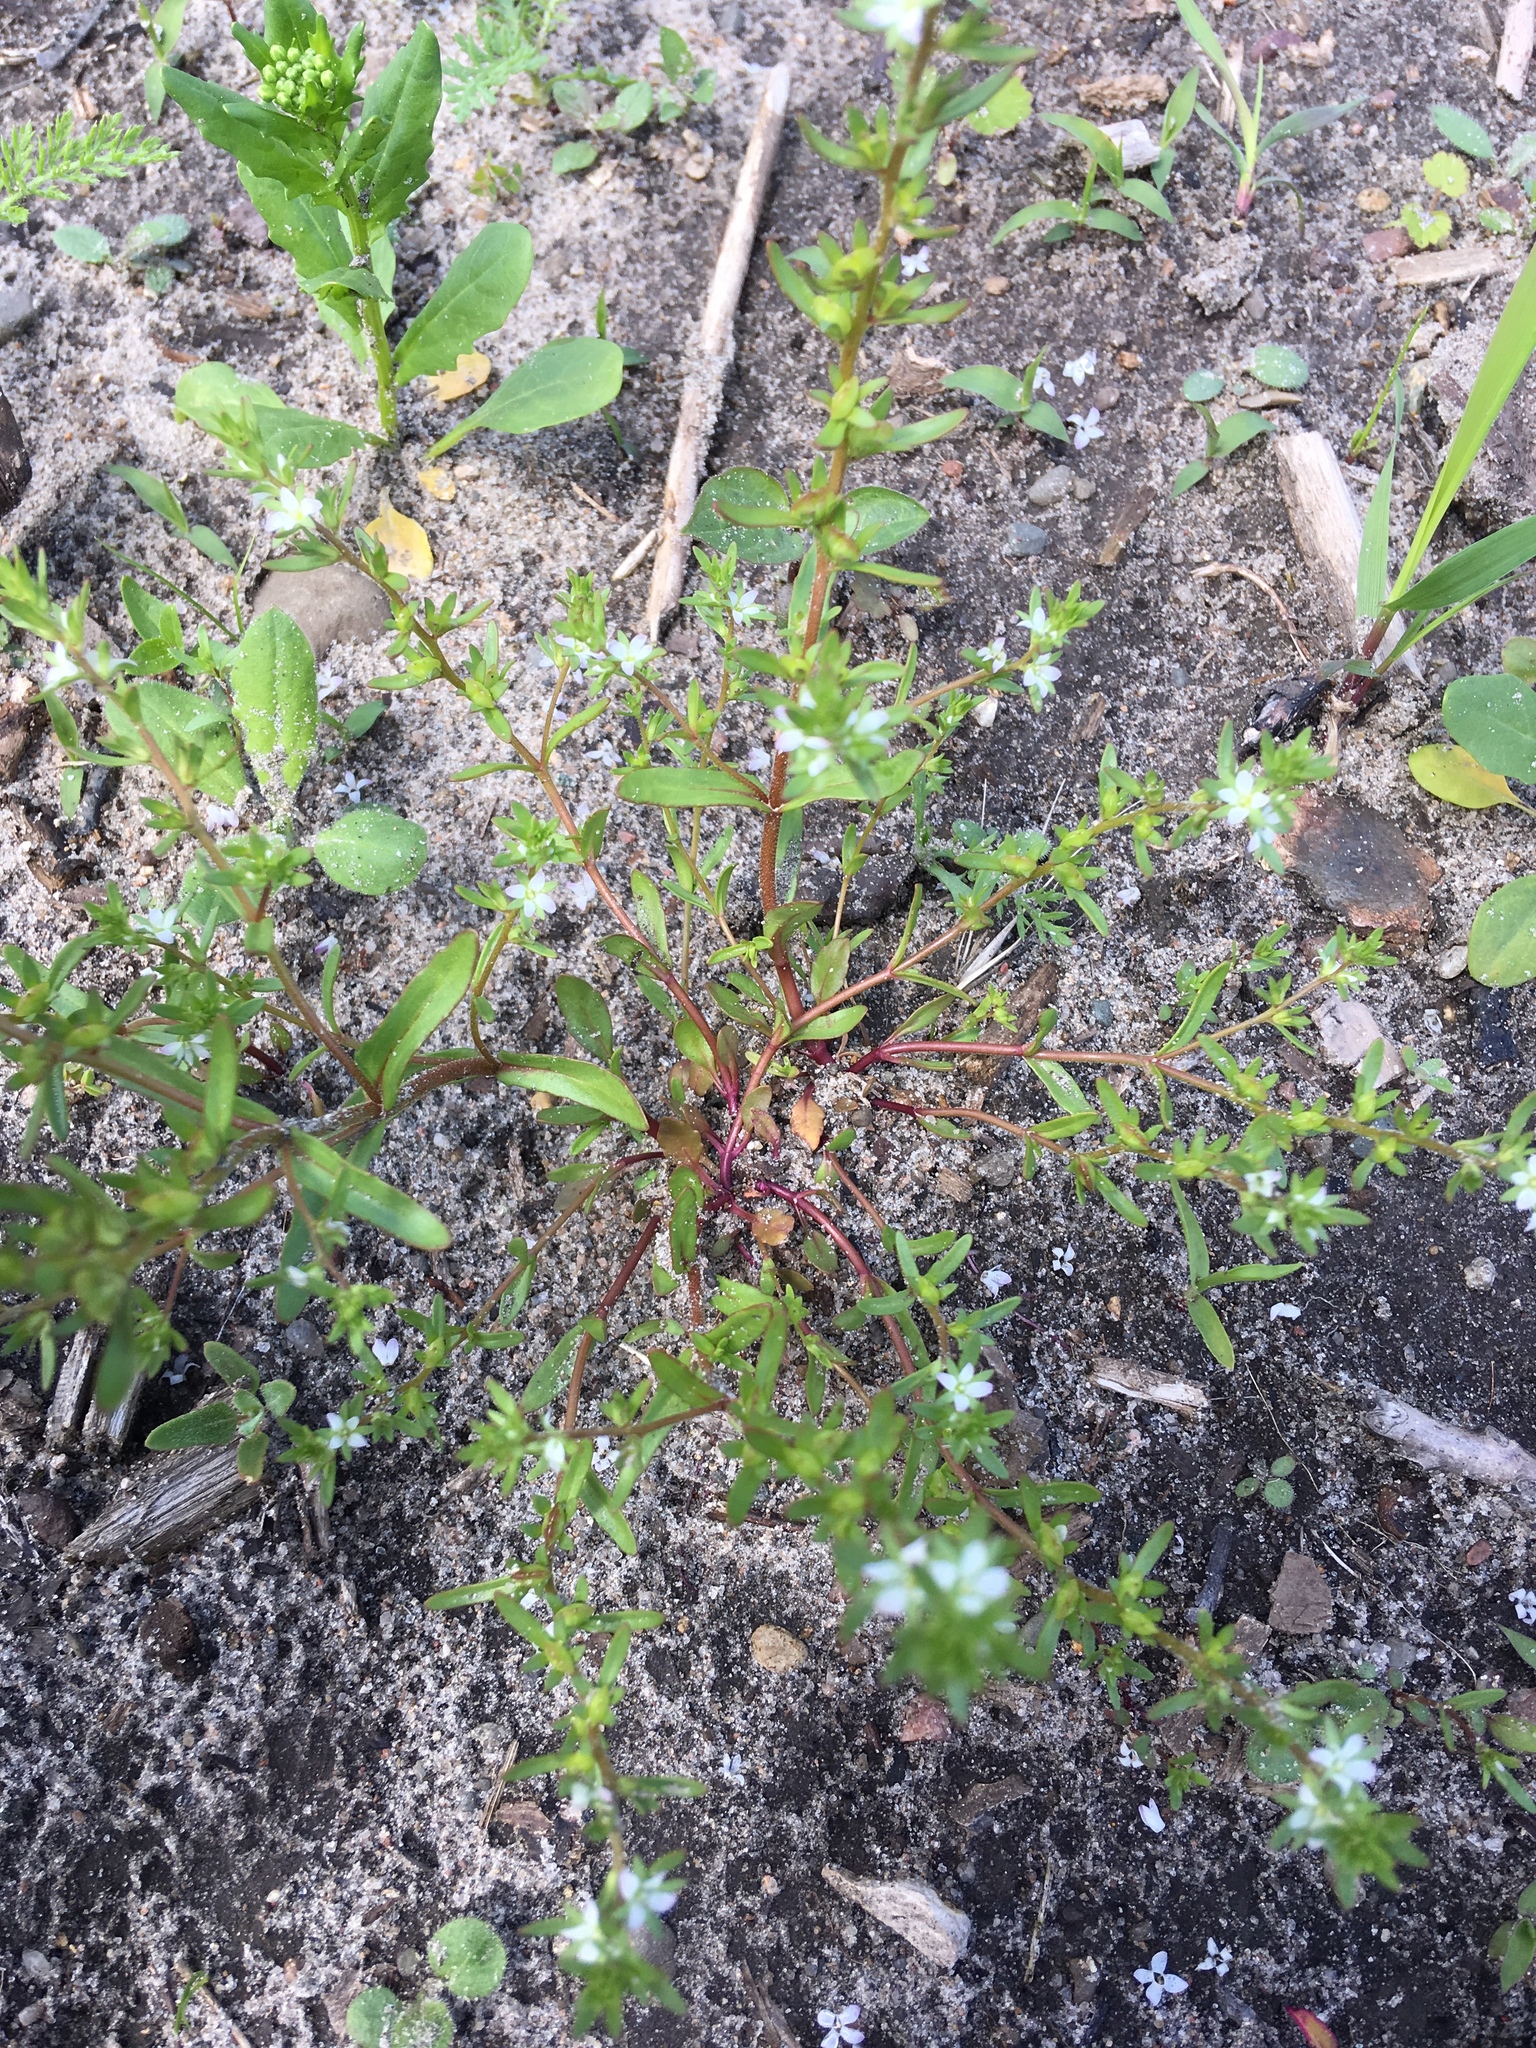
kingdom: Plantae
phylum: Tracheophyta
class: Magnoliopsida
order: Lamiales
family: Plantaginaceae
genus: Veronica
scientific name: Veronica peregrina
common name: Neckweed
